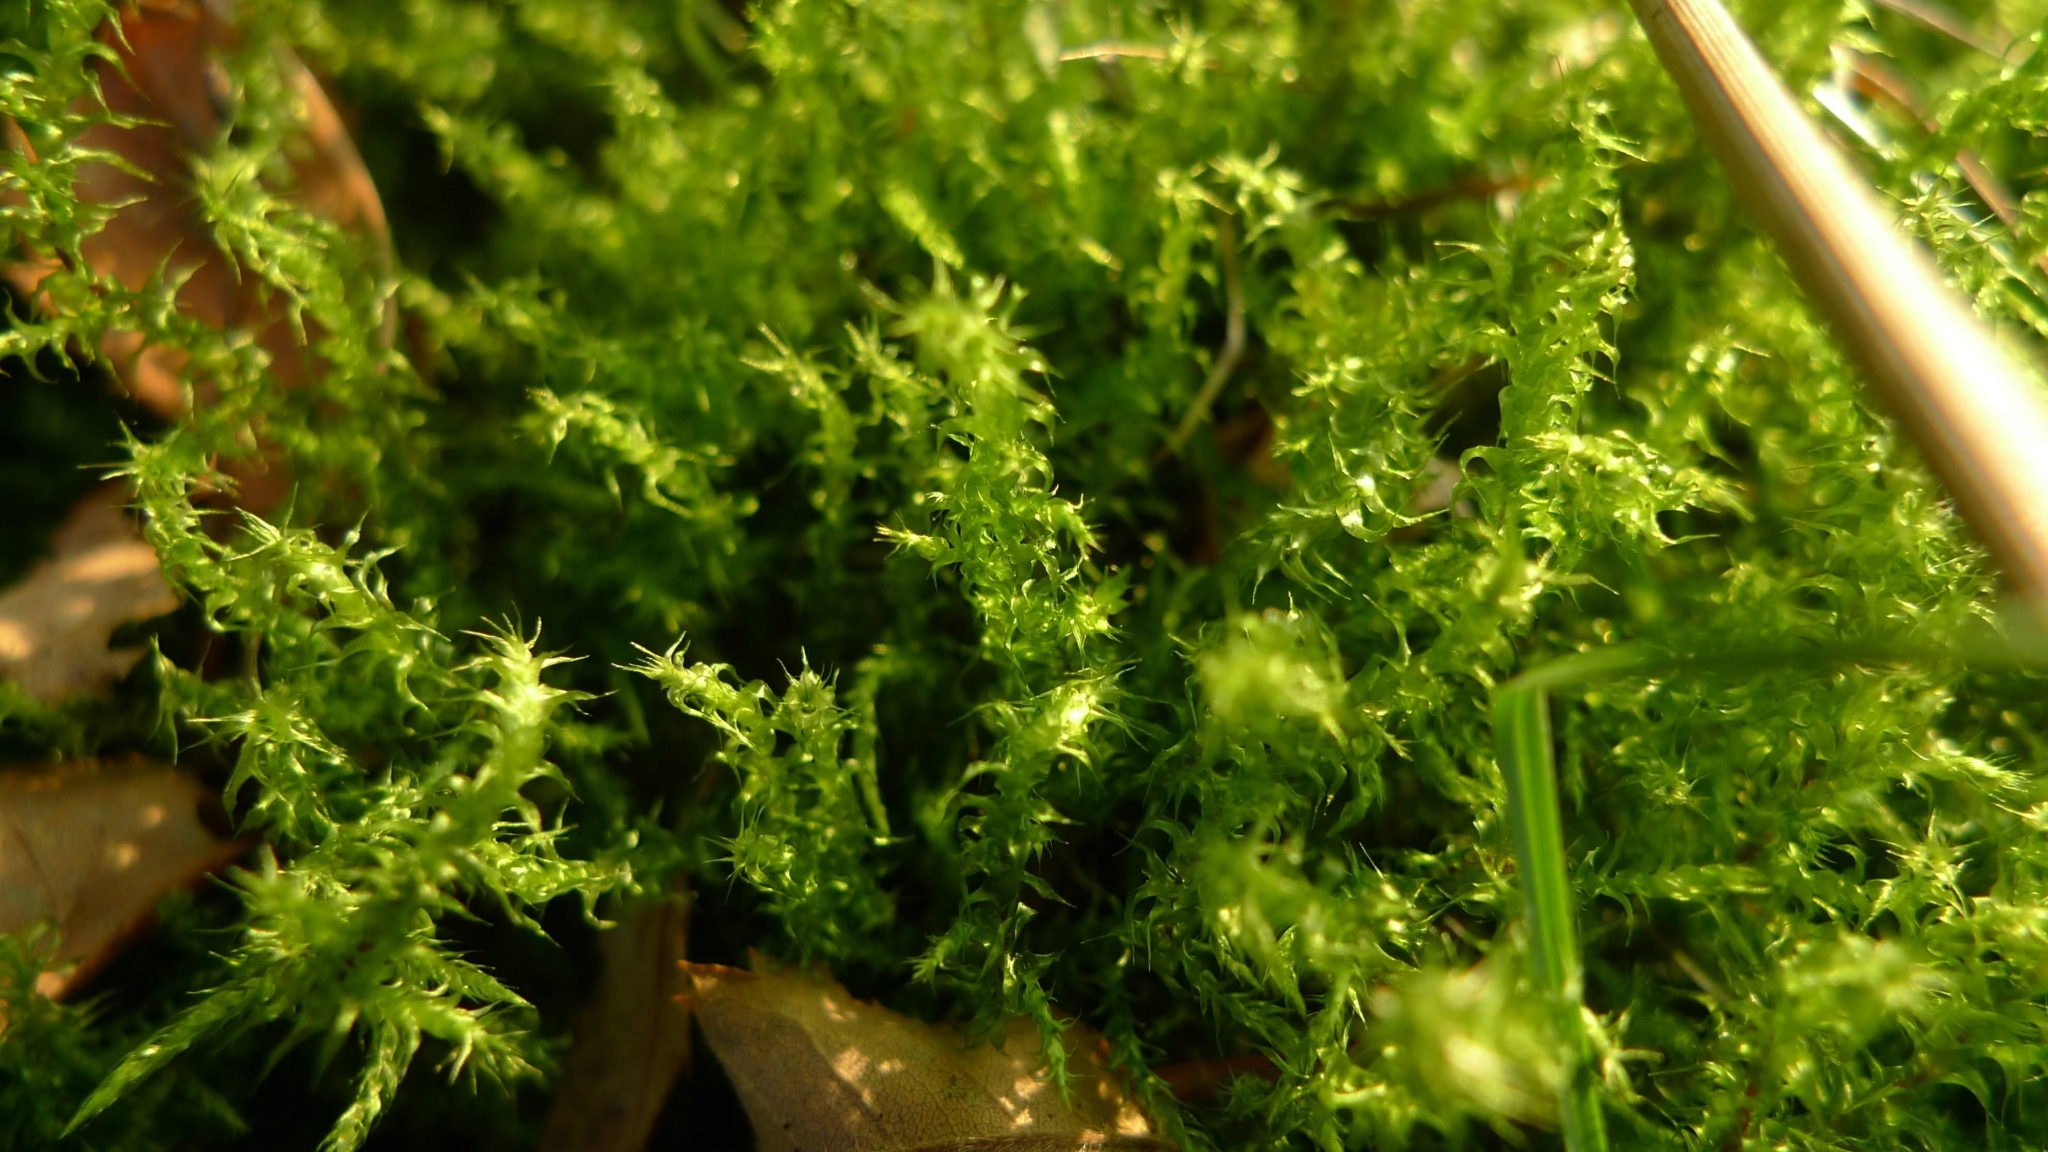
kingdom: Plantae
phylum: Bryophyta
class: Bryopsida
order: Hypnales
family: Hylocomiaceae
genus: Rhytidiadelphus
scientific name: Rhytidiadelphus squarrosus
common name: Springy turf-moss
